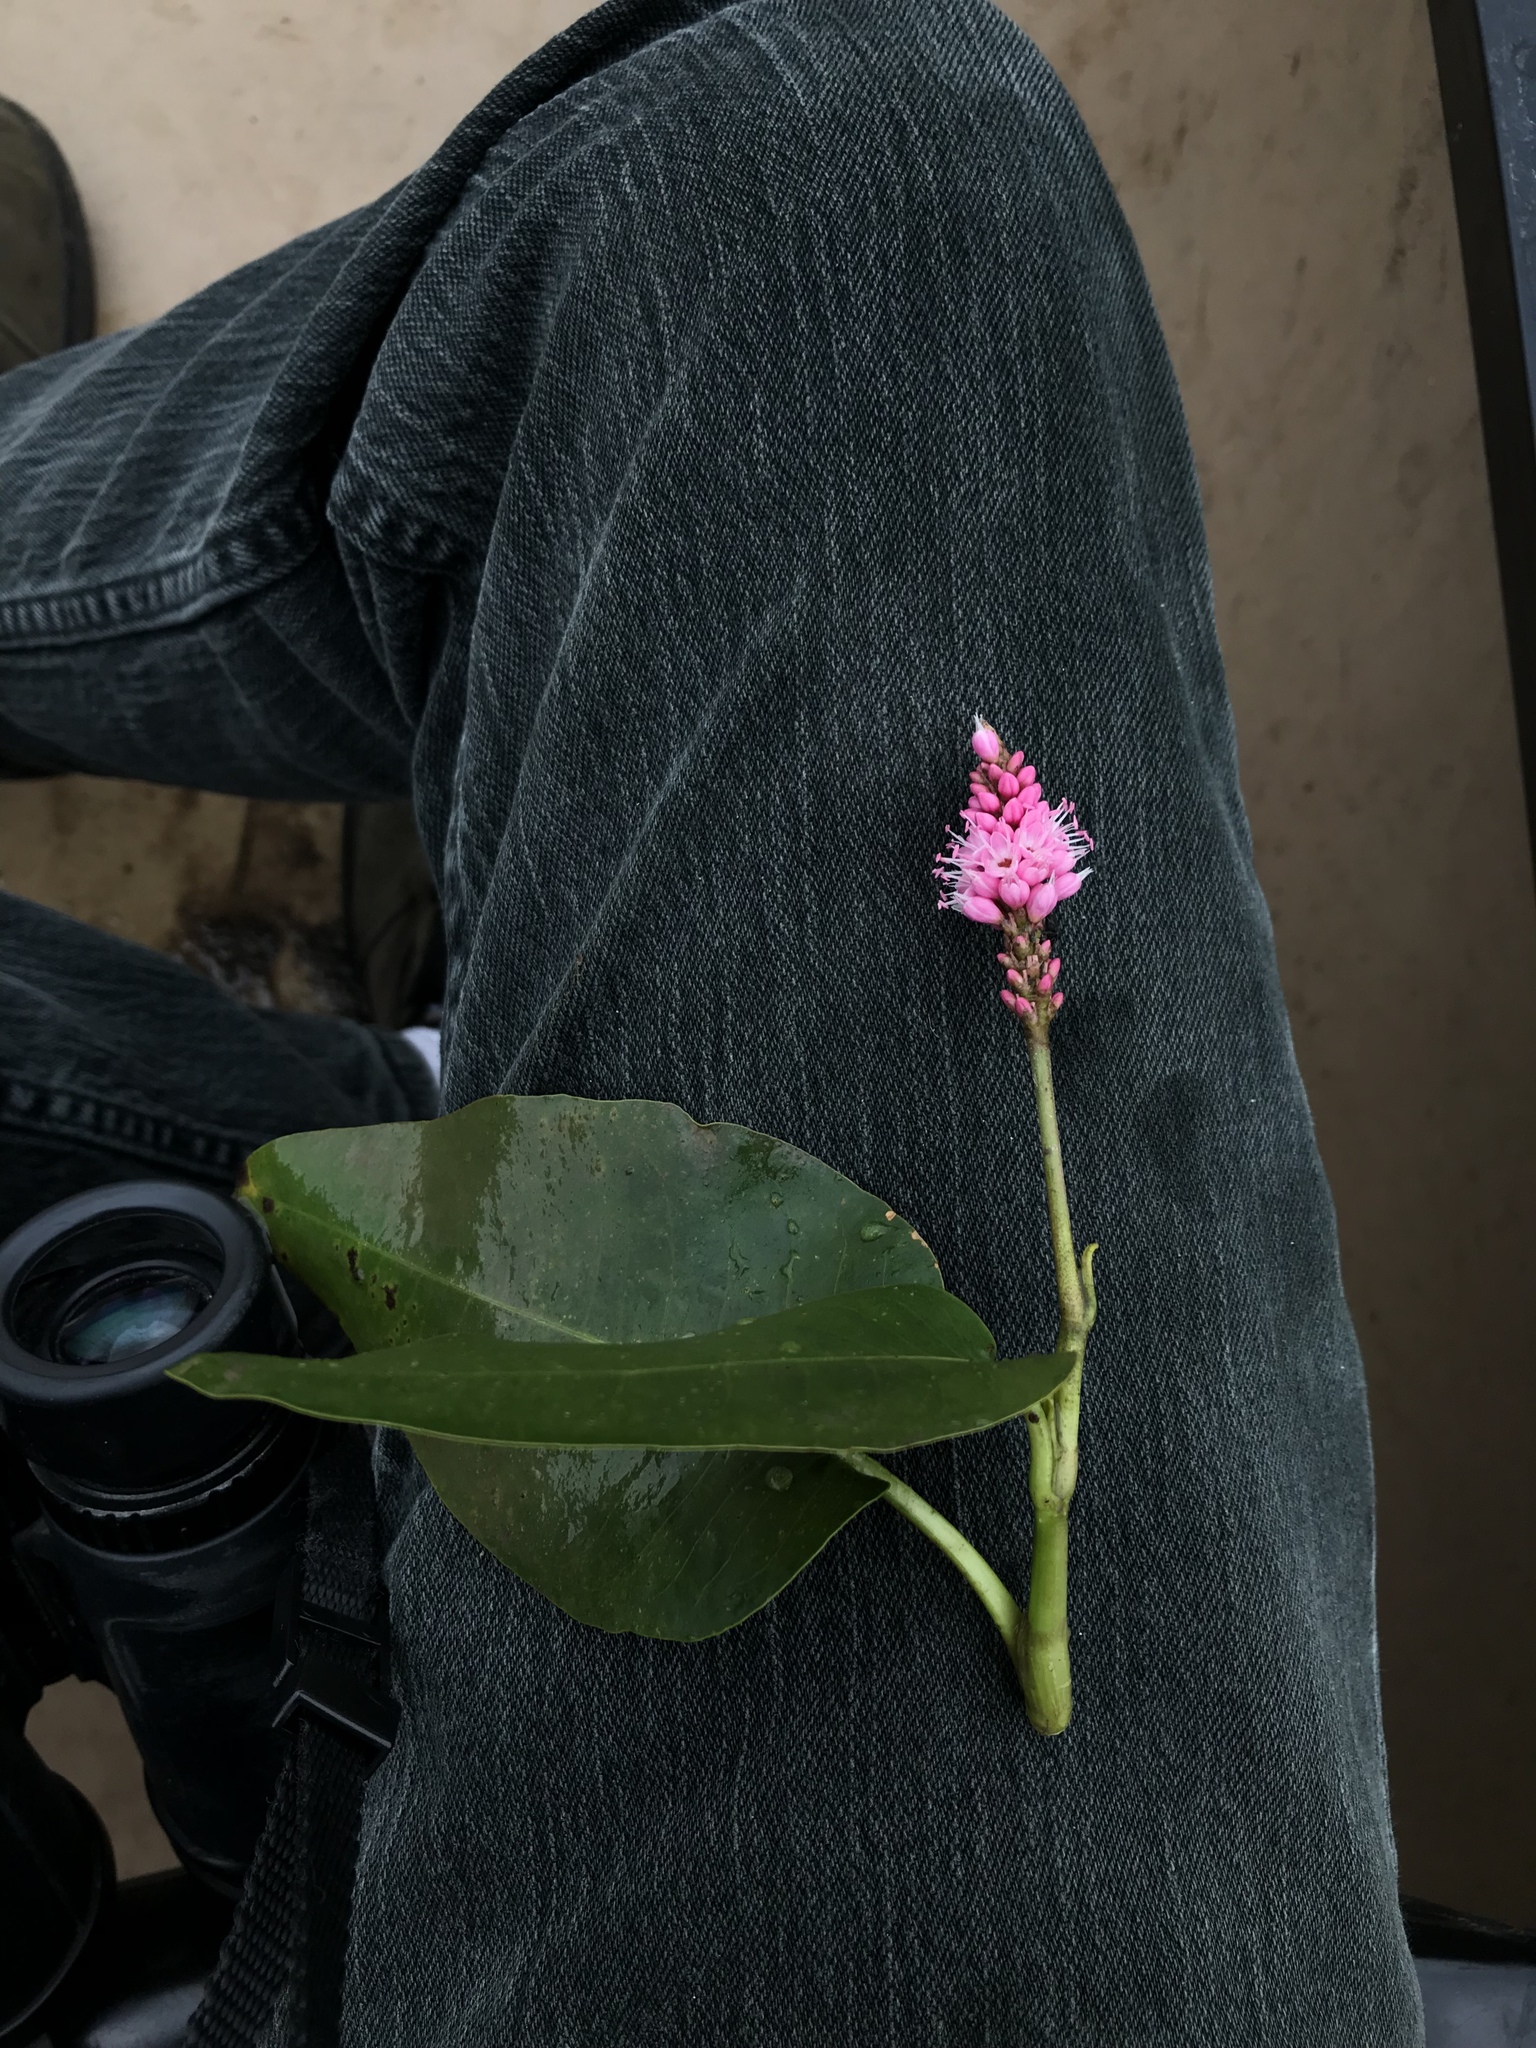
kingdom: Plantae
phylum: Tracheophyta
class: Magnoliopsida
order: Caryophyllales
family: Polygonaceae
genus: Persicaria
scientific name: Persicaria amphibia
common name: Amphibious bistort
